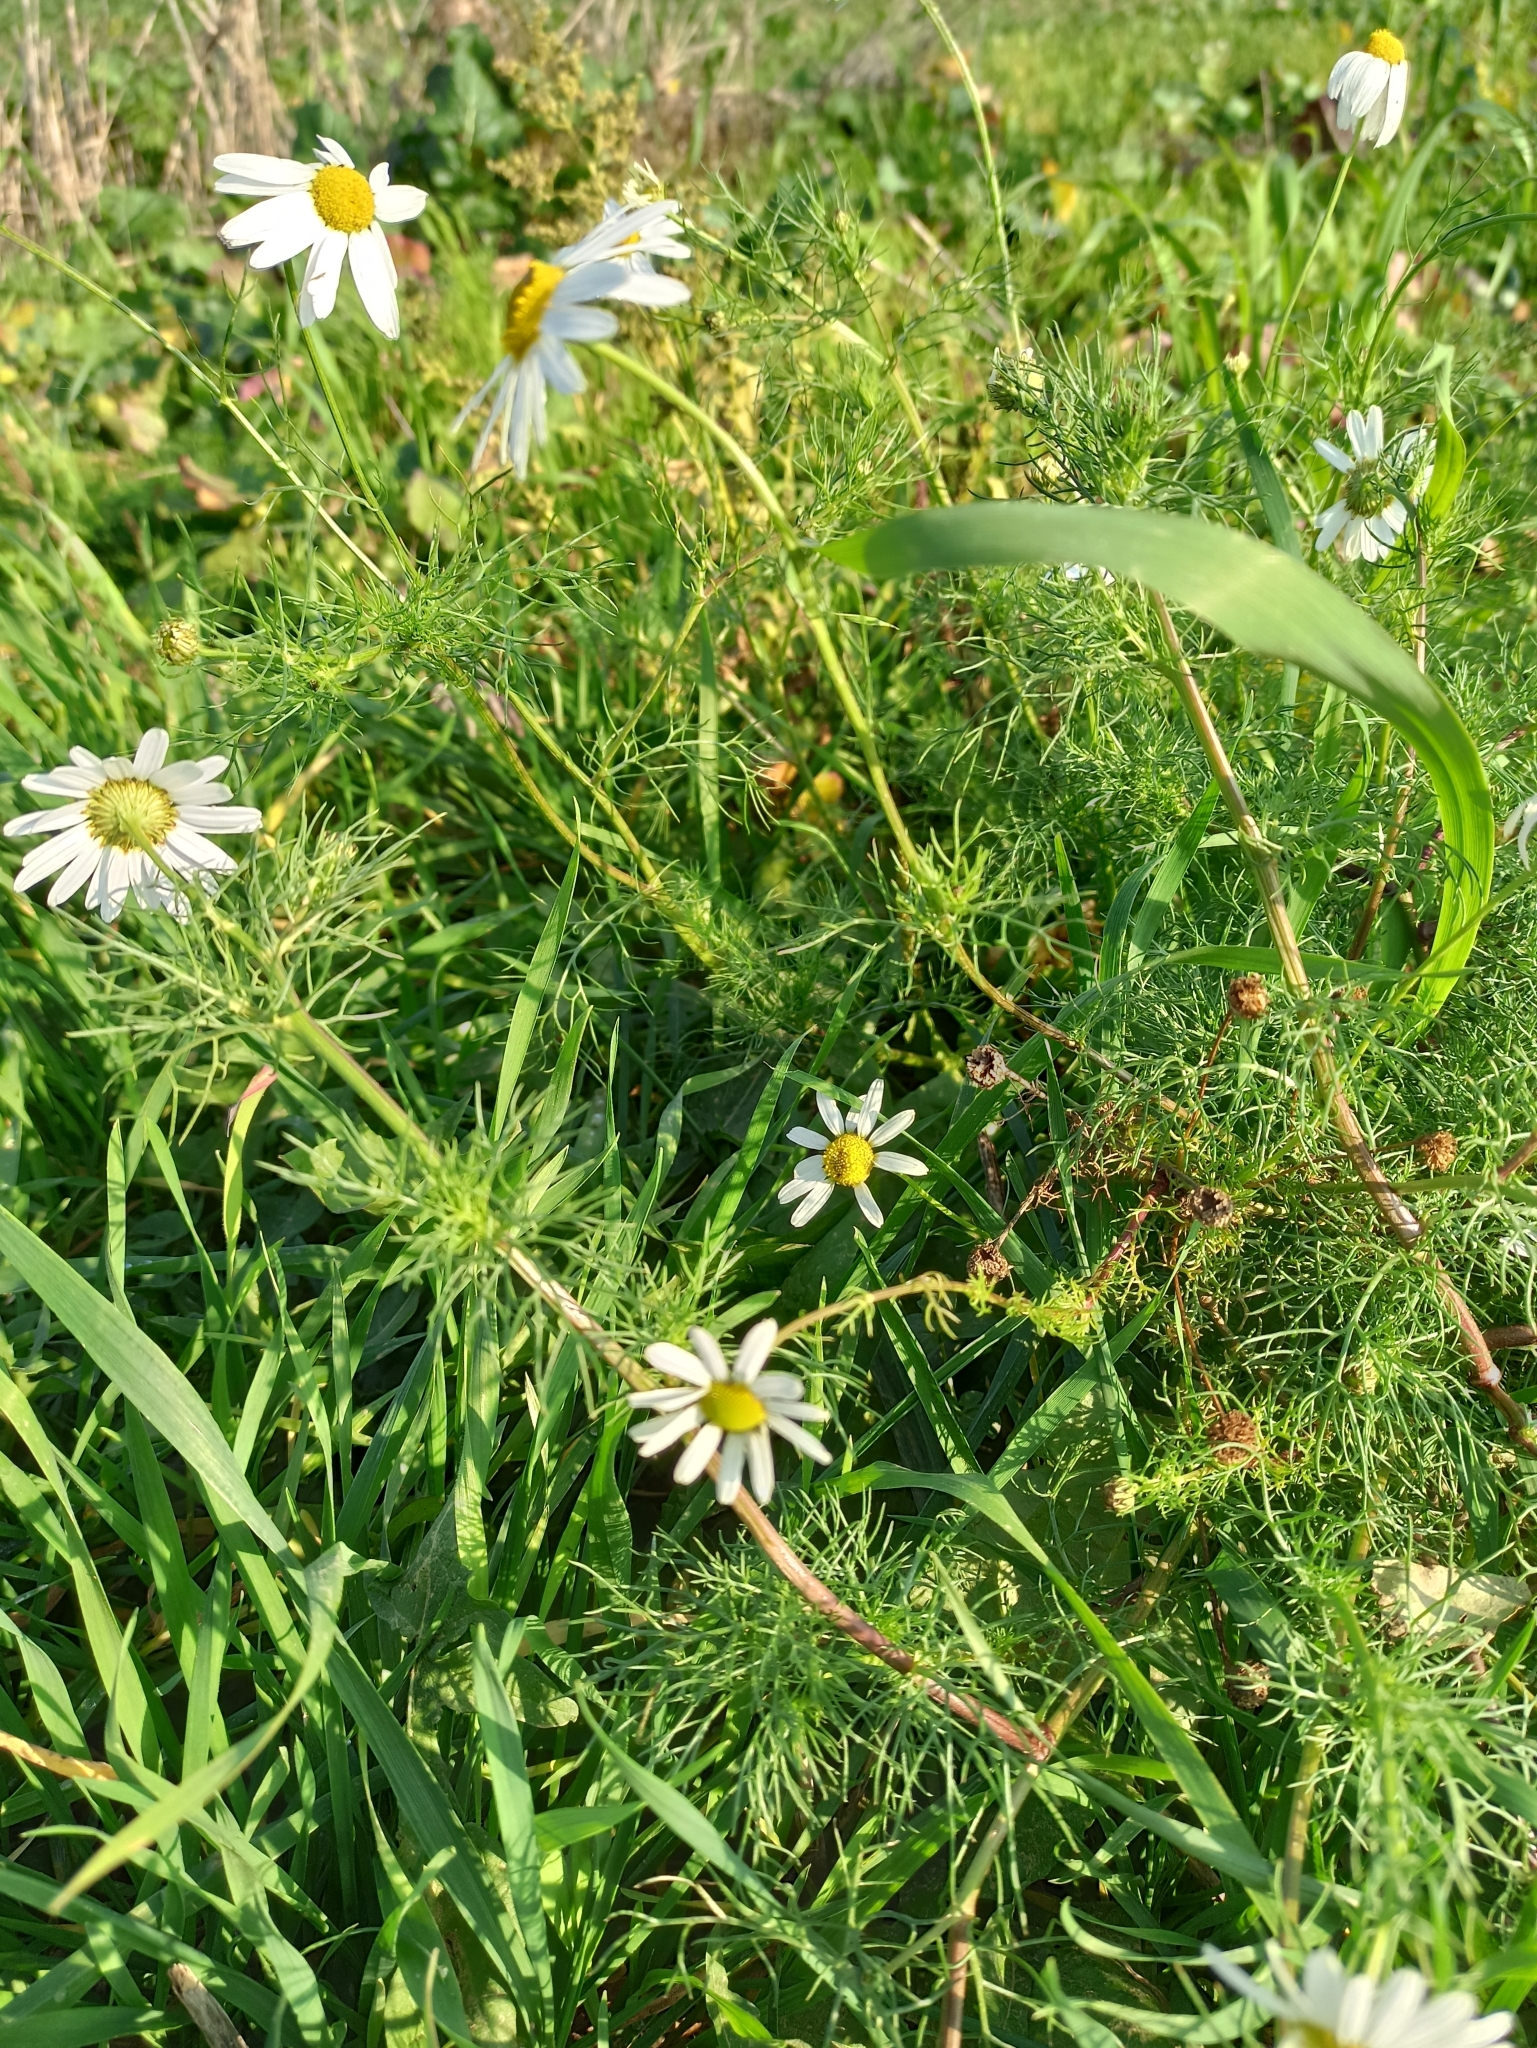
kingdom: Plantae
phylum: Tracheophyta
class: Magnoliopsida
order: Asterales
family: Asteraceae
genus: Tripleurospermum
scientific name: Tripleurospermum inodorum
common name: Scentless mayweed
